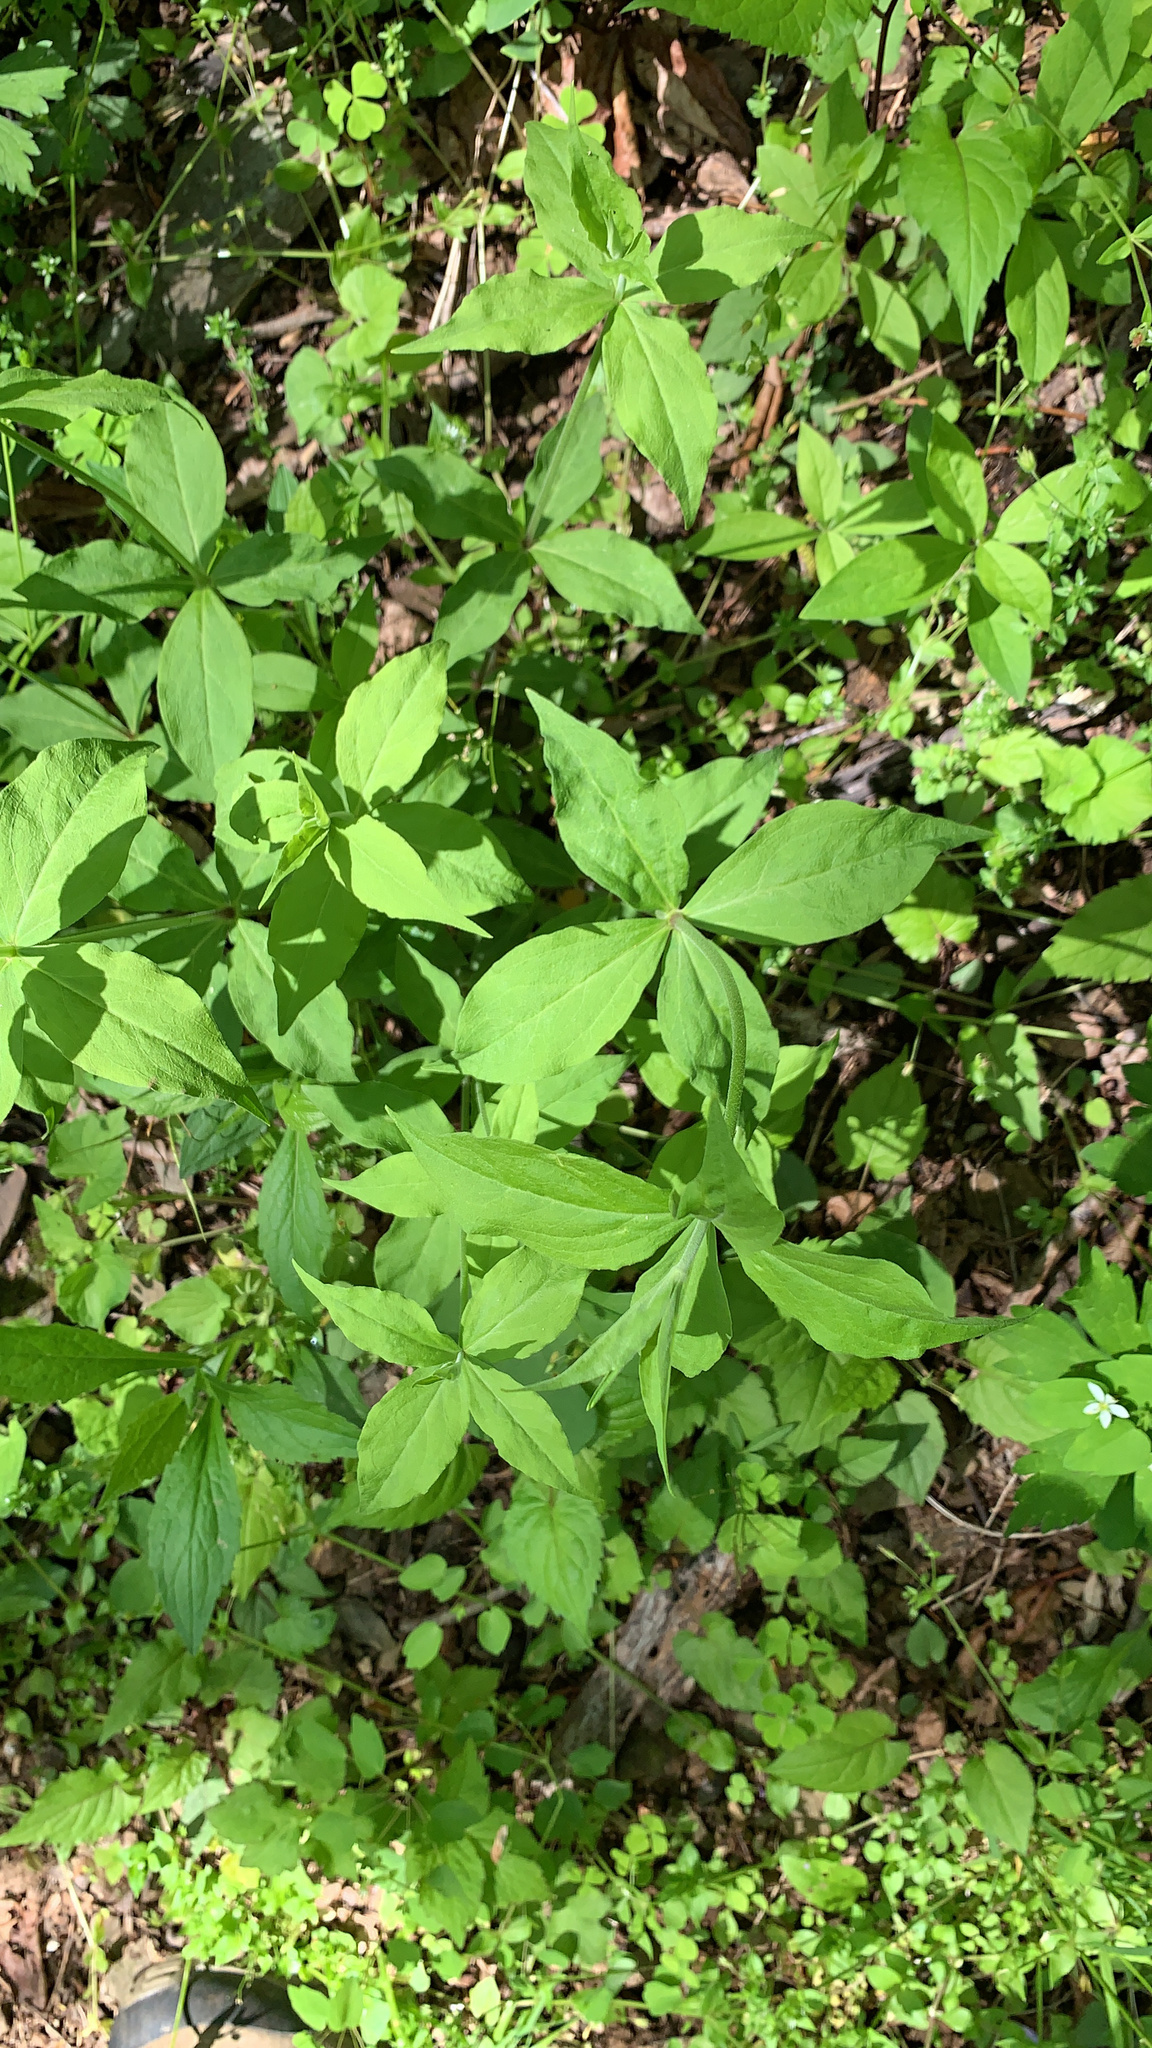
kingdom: Plantae
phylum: Tracheophyta
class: Magnoliopsida
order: Caryophyllales
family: Caryophyllaceae
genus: Silene
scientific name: Silene stellata
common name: Starry campion
